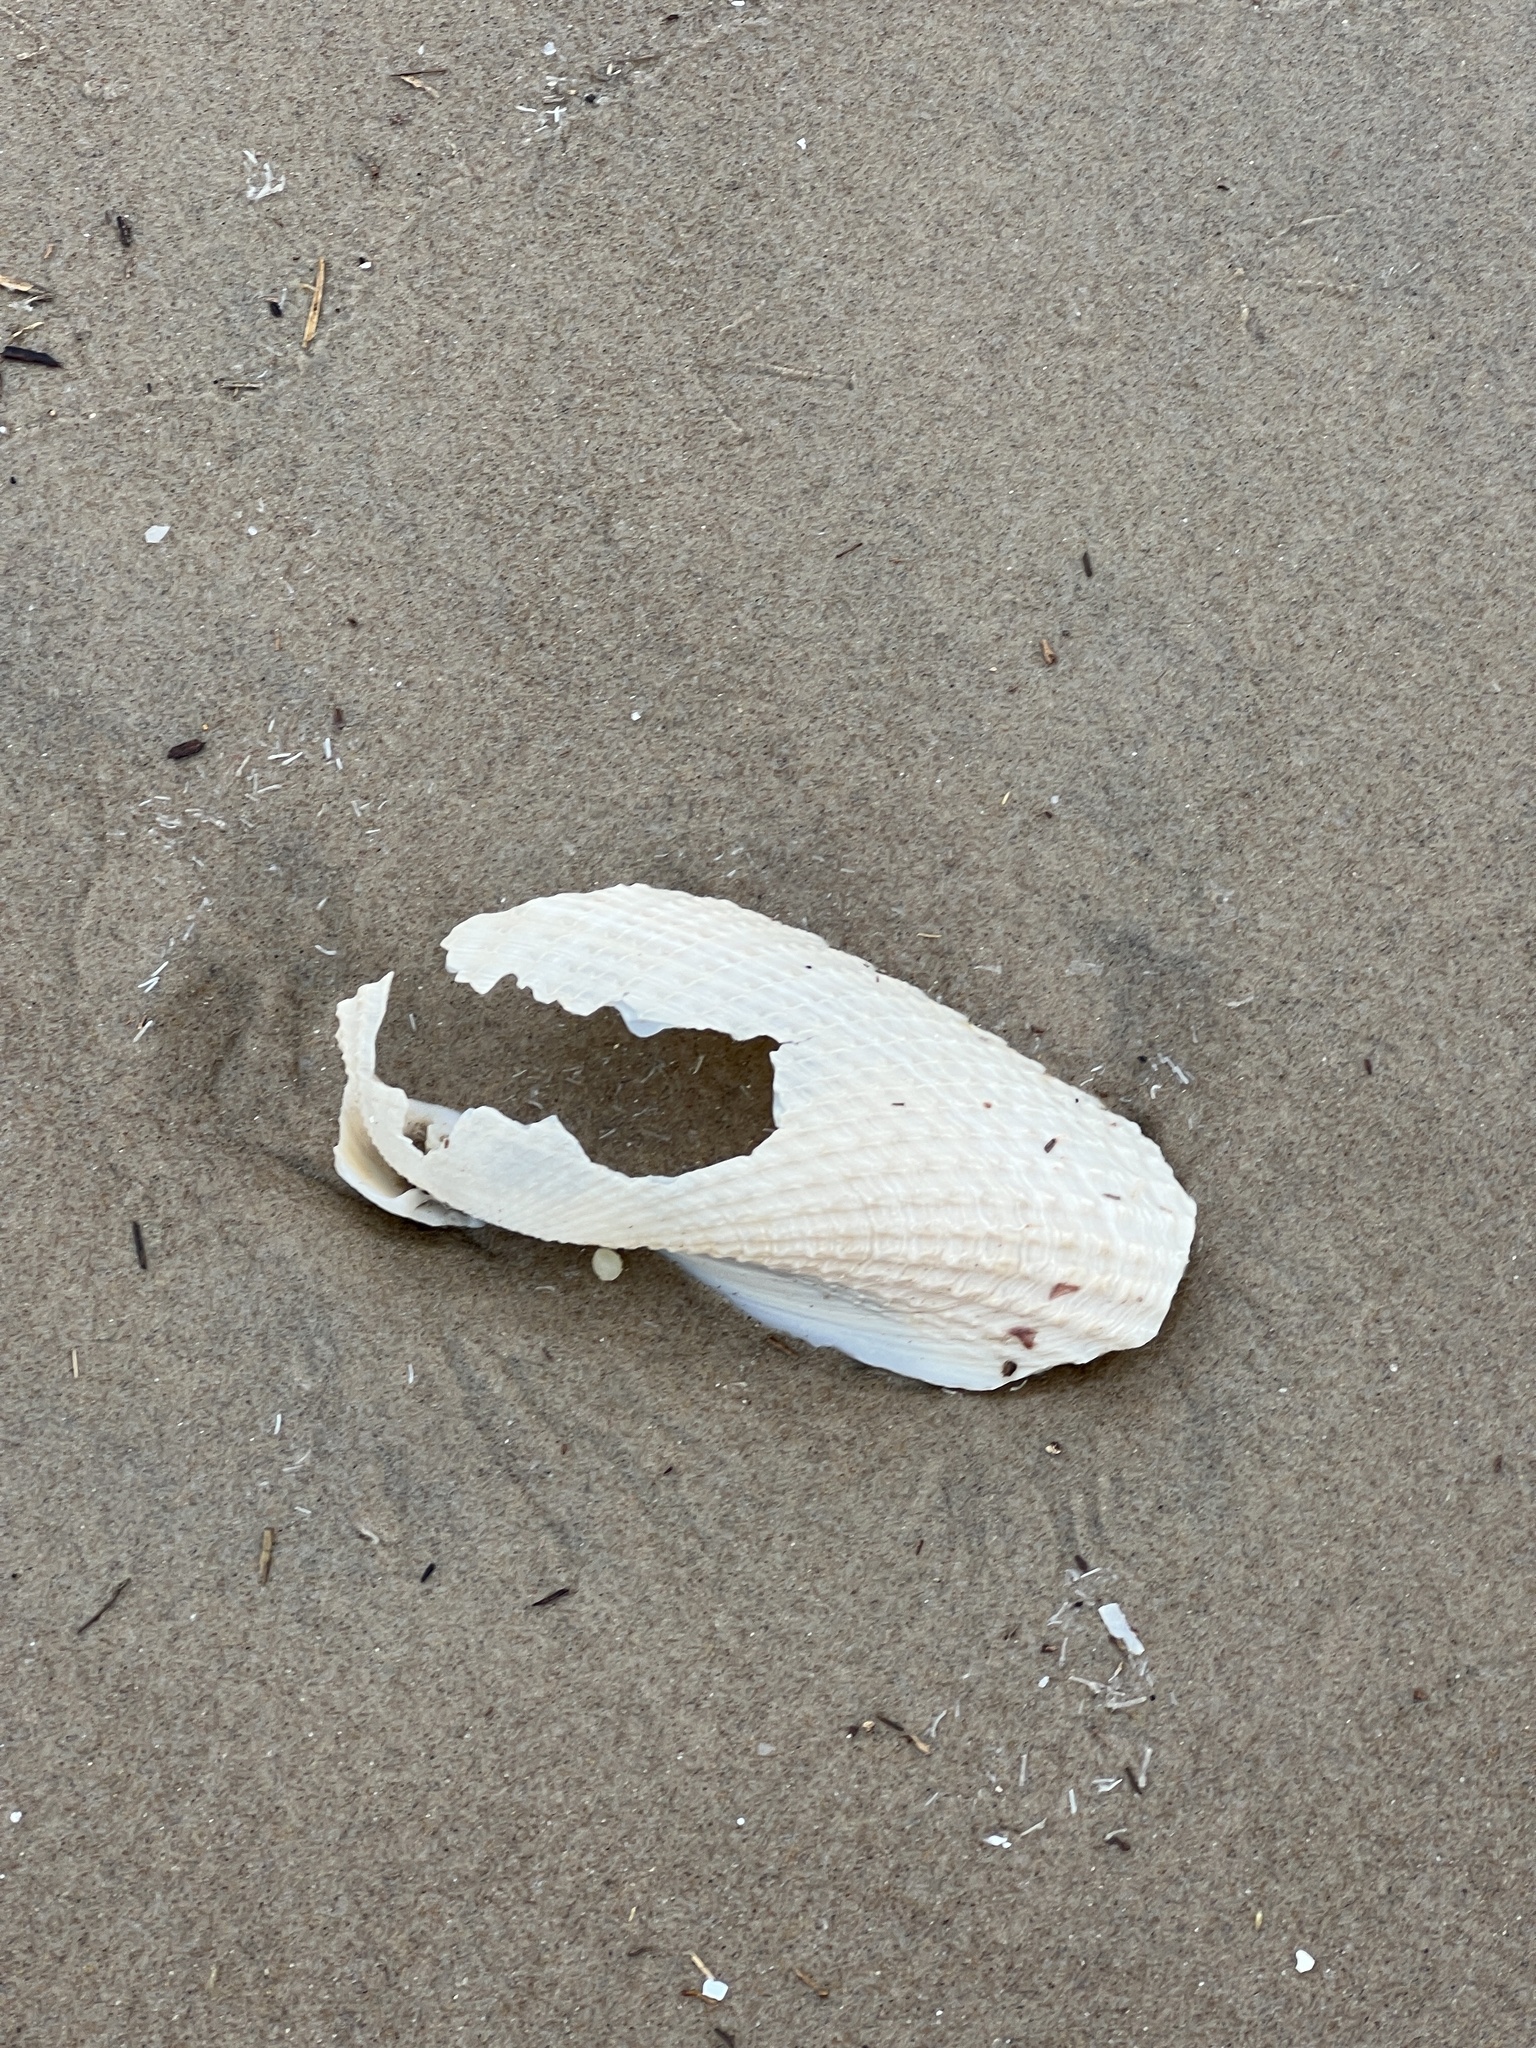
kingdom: Animalia
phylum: Mollusca
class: Bivalvia
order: Myida
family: Pholadidae
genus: Cyrtopleura
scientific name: Cyrtopleura costata
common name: Angel wing
